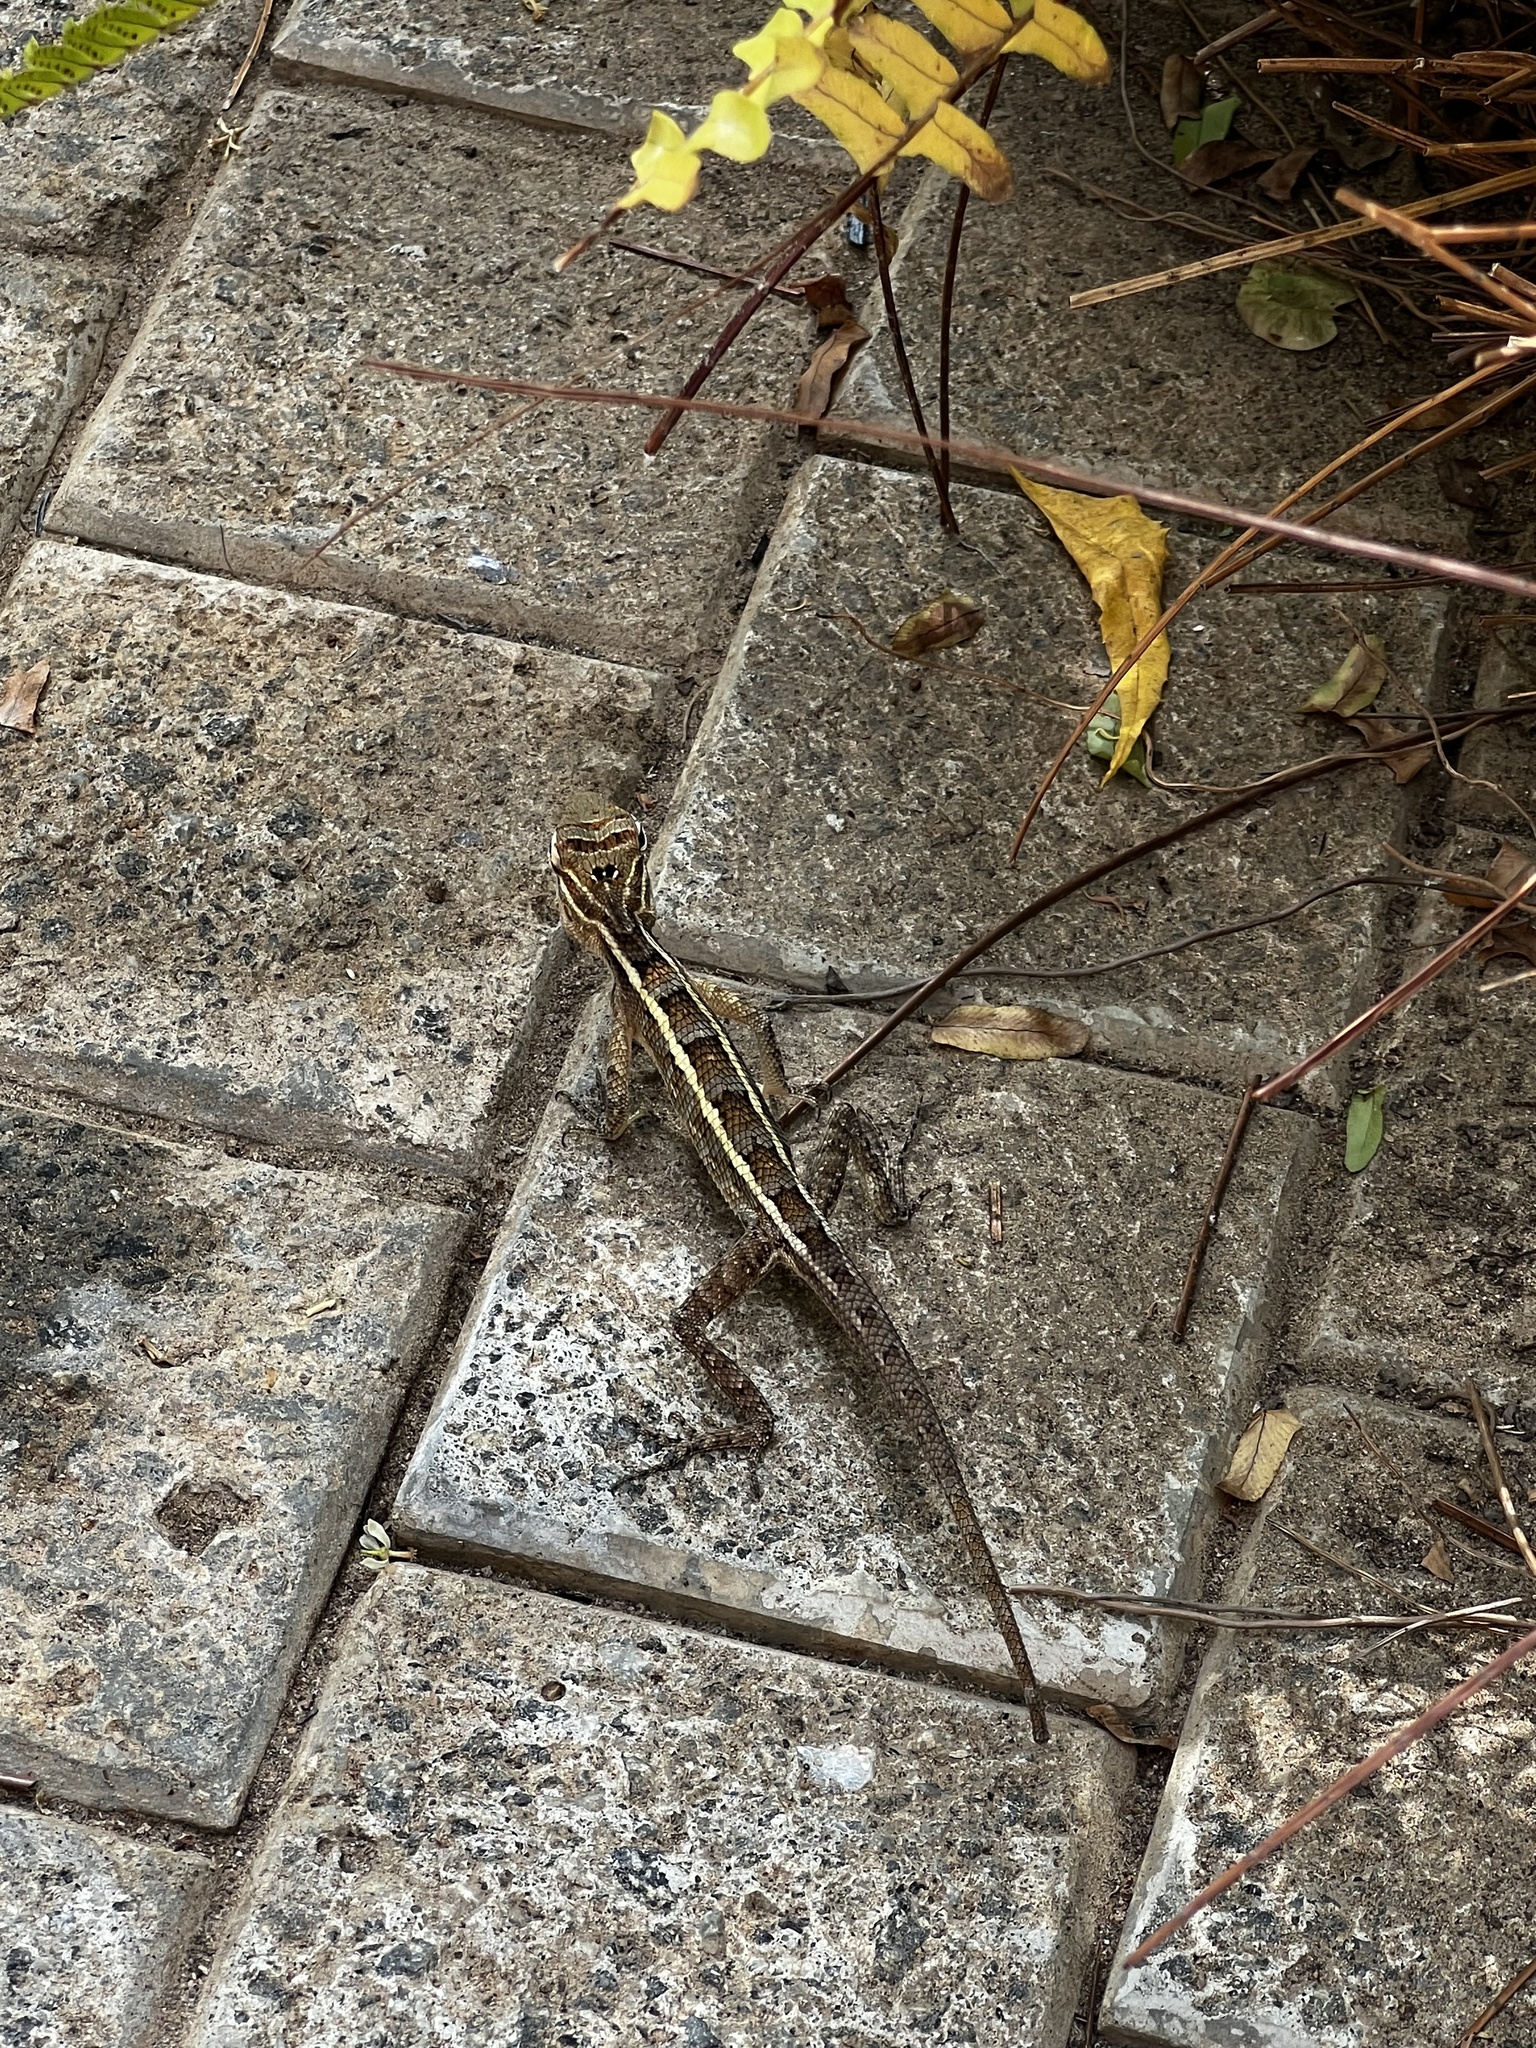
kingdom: Animalia
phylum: Chordata
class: Squamata
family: Agamidae
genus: Calotes
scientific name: Calotes versicolor
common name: Oriental garden lizard
